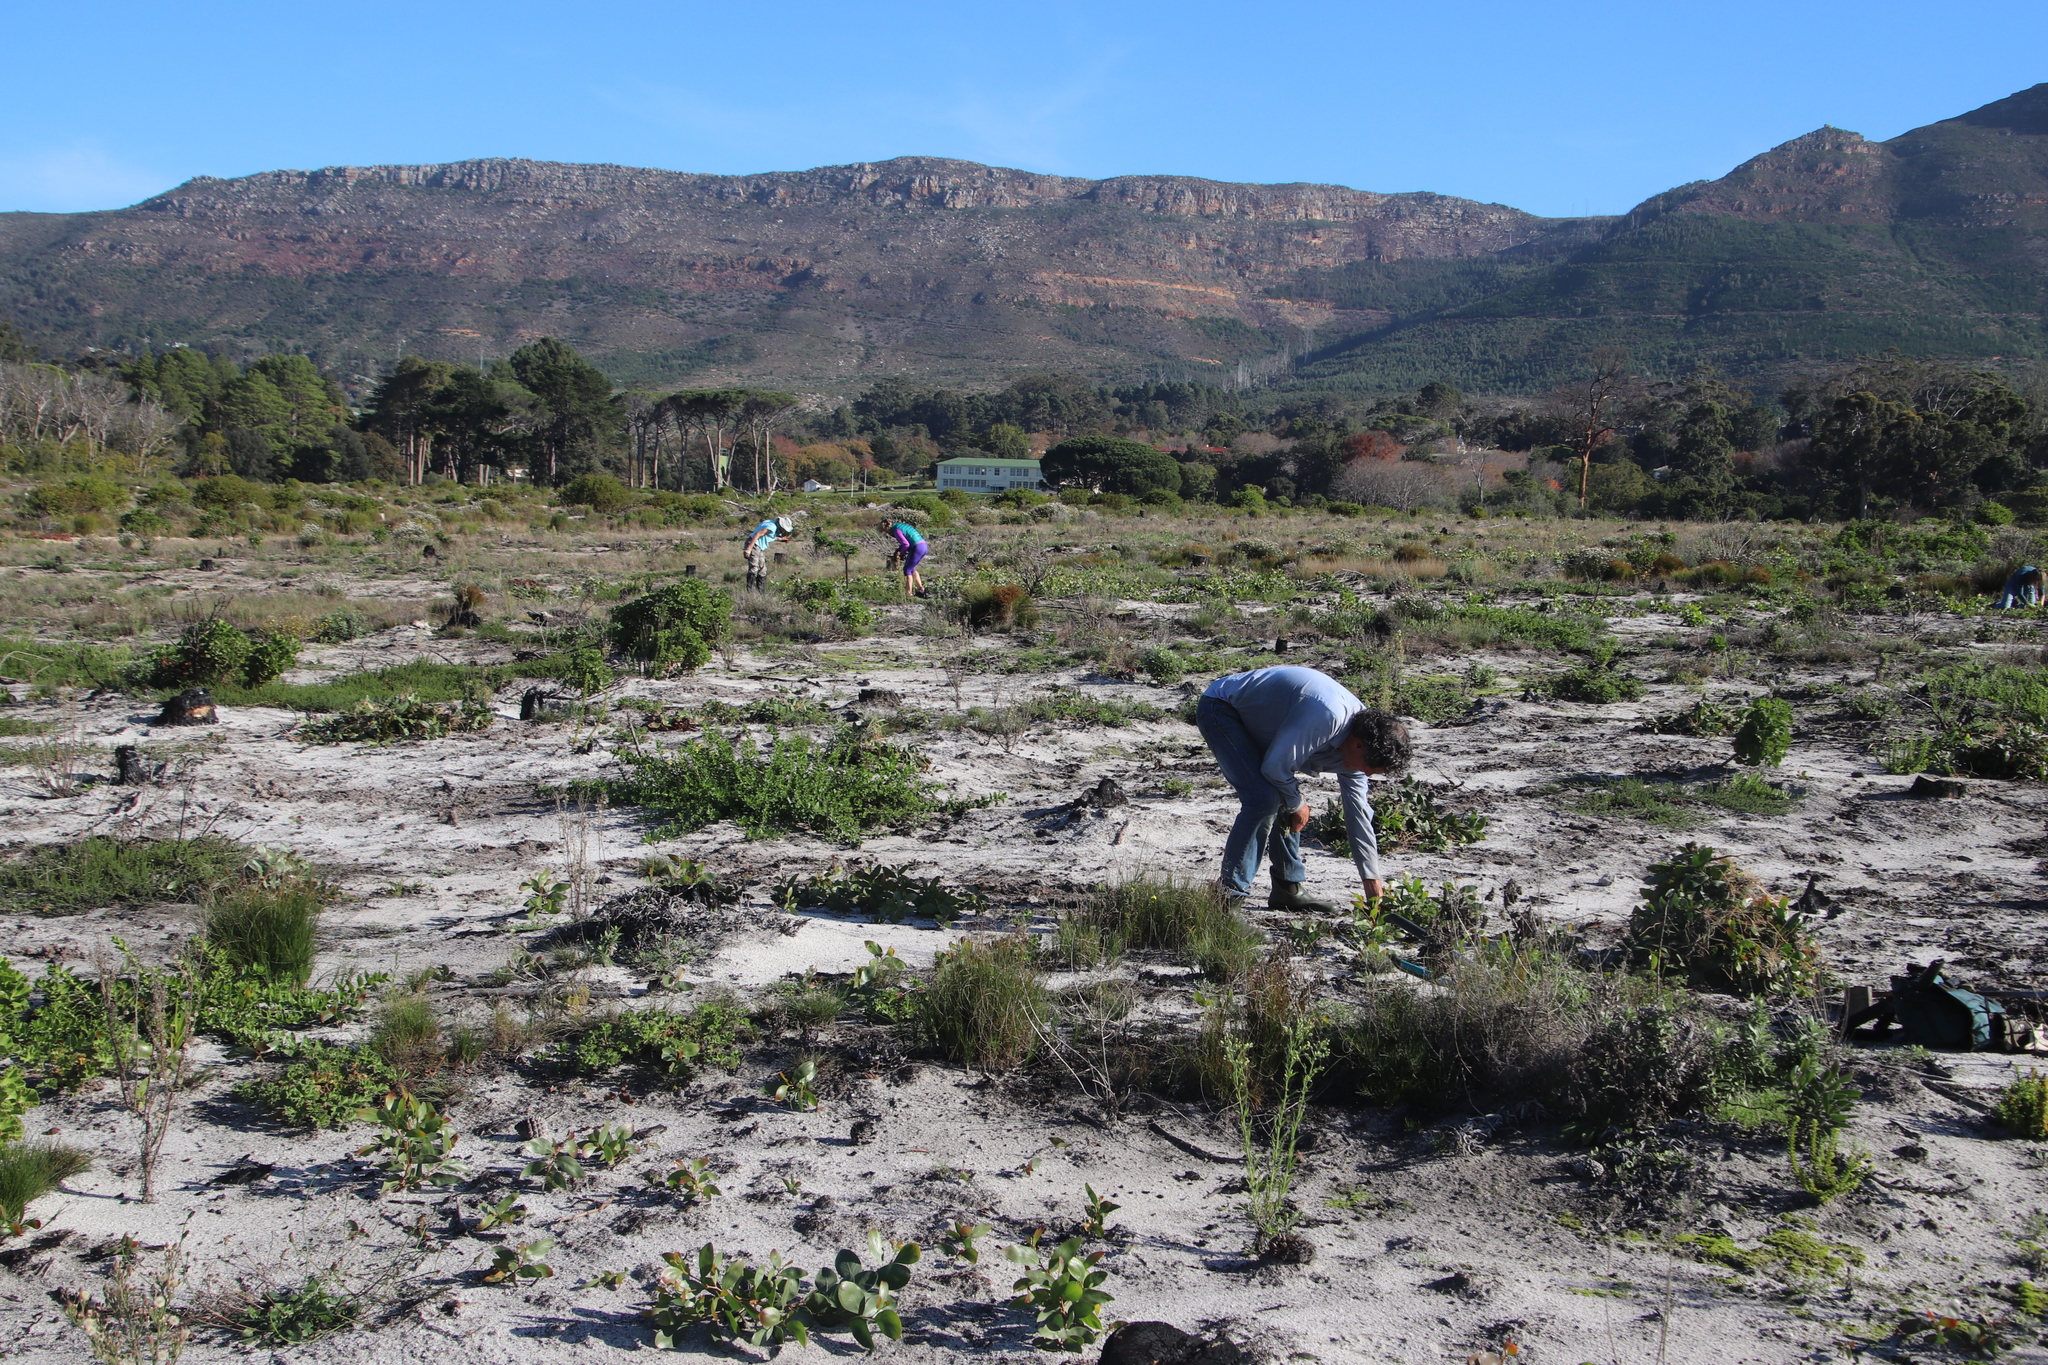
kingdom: Plantae
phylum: Tracheophyta
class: Magnoliopsida
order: Lamiales
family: Scrophulariaceae
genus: Oftia
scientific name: Oftia africana
